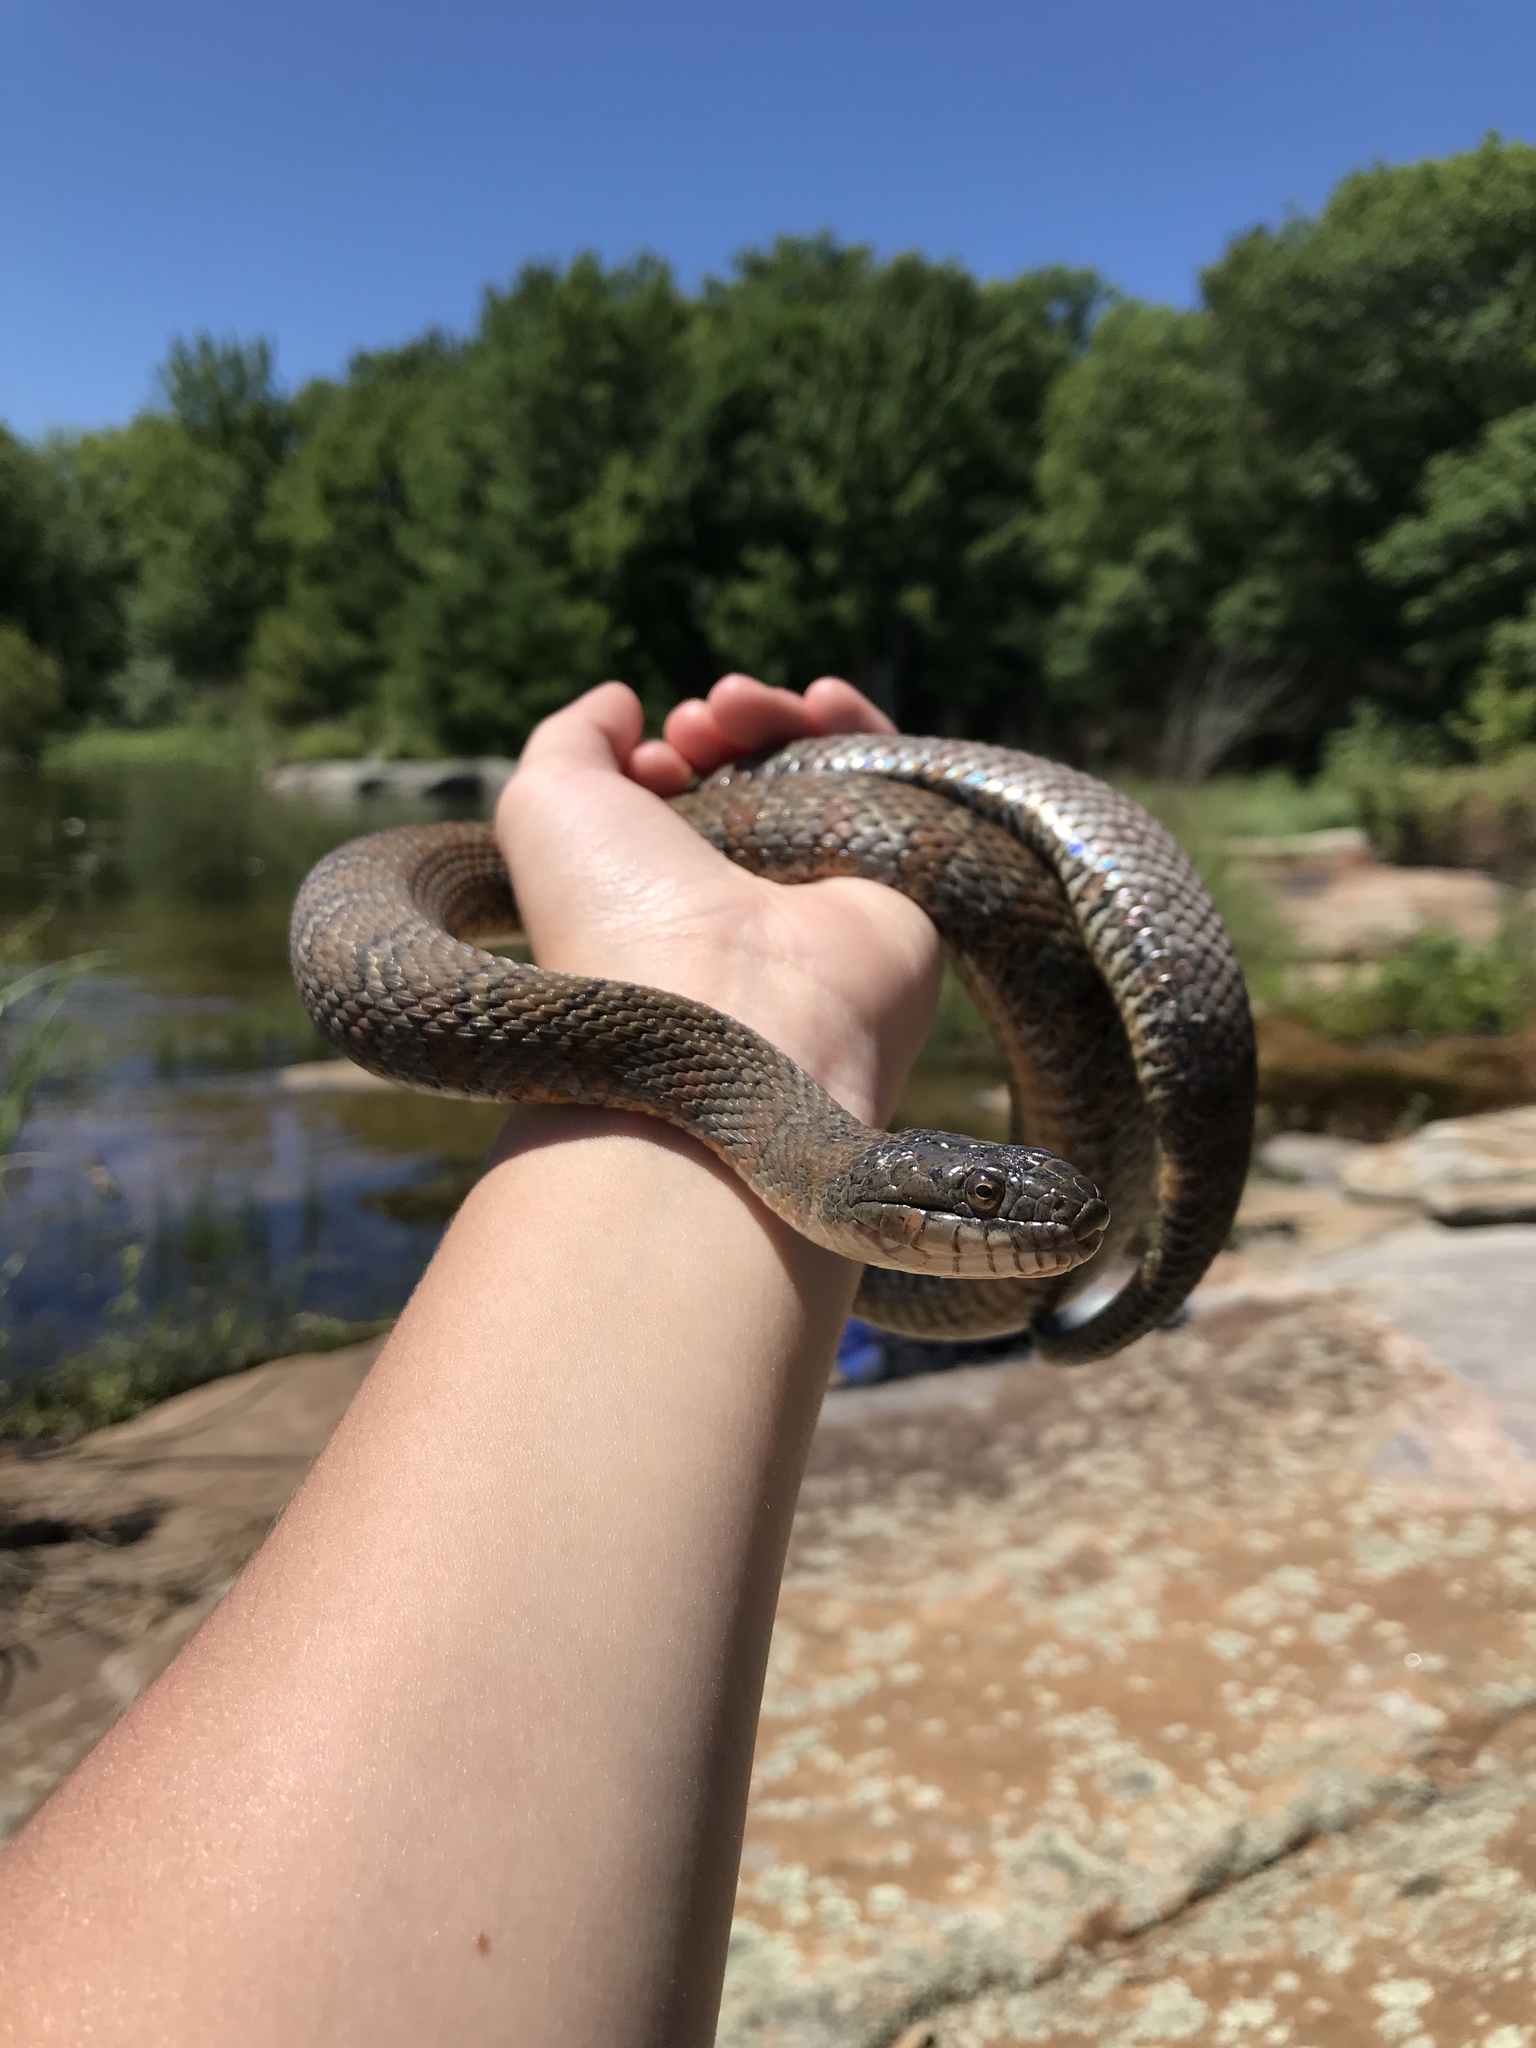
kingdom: Animalia
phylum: Chordata
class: Squamata
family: Colubridae
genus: Nerodia
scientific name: Nerodia sipedon
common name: Northern water snake
